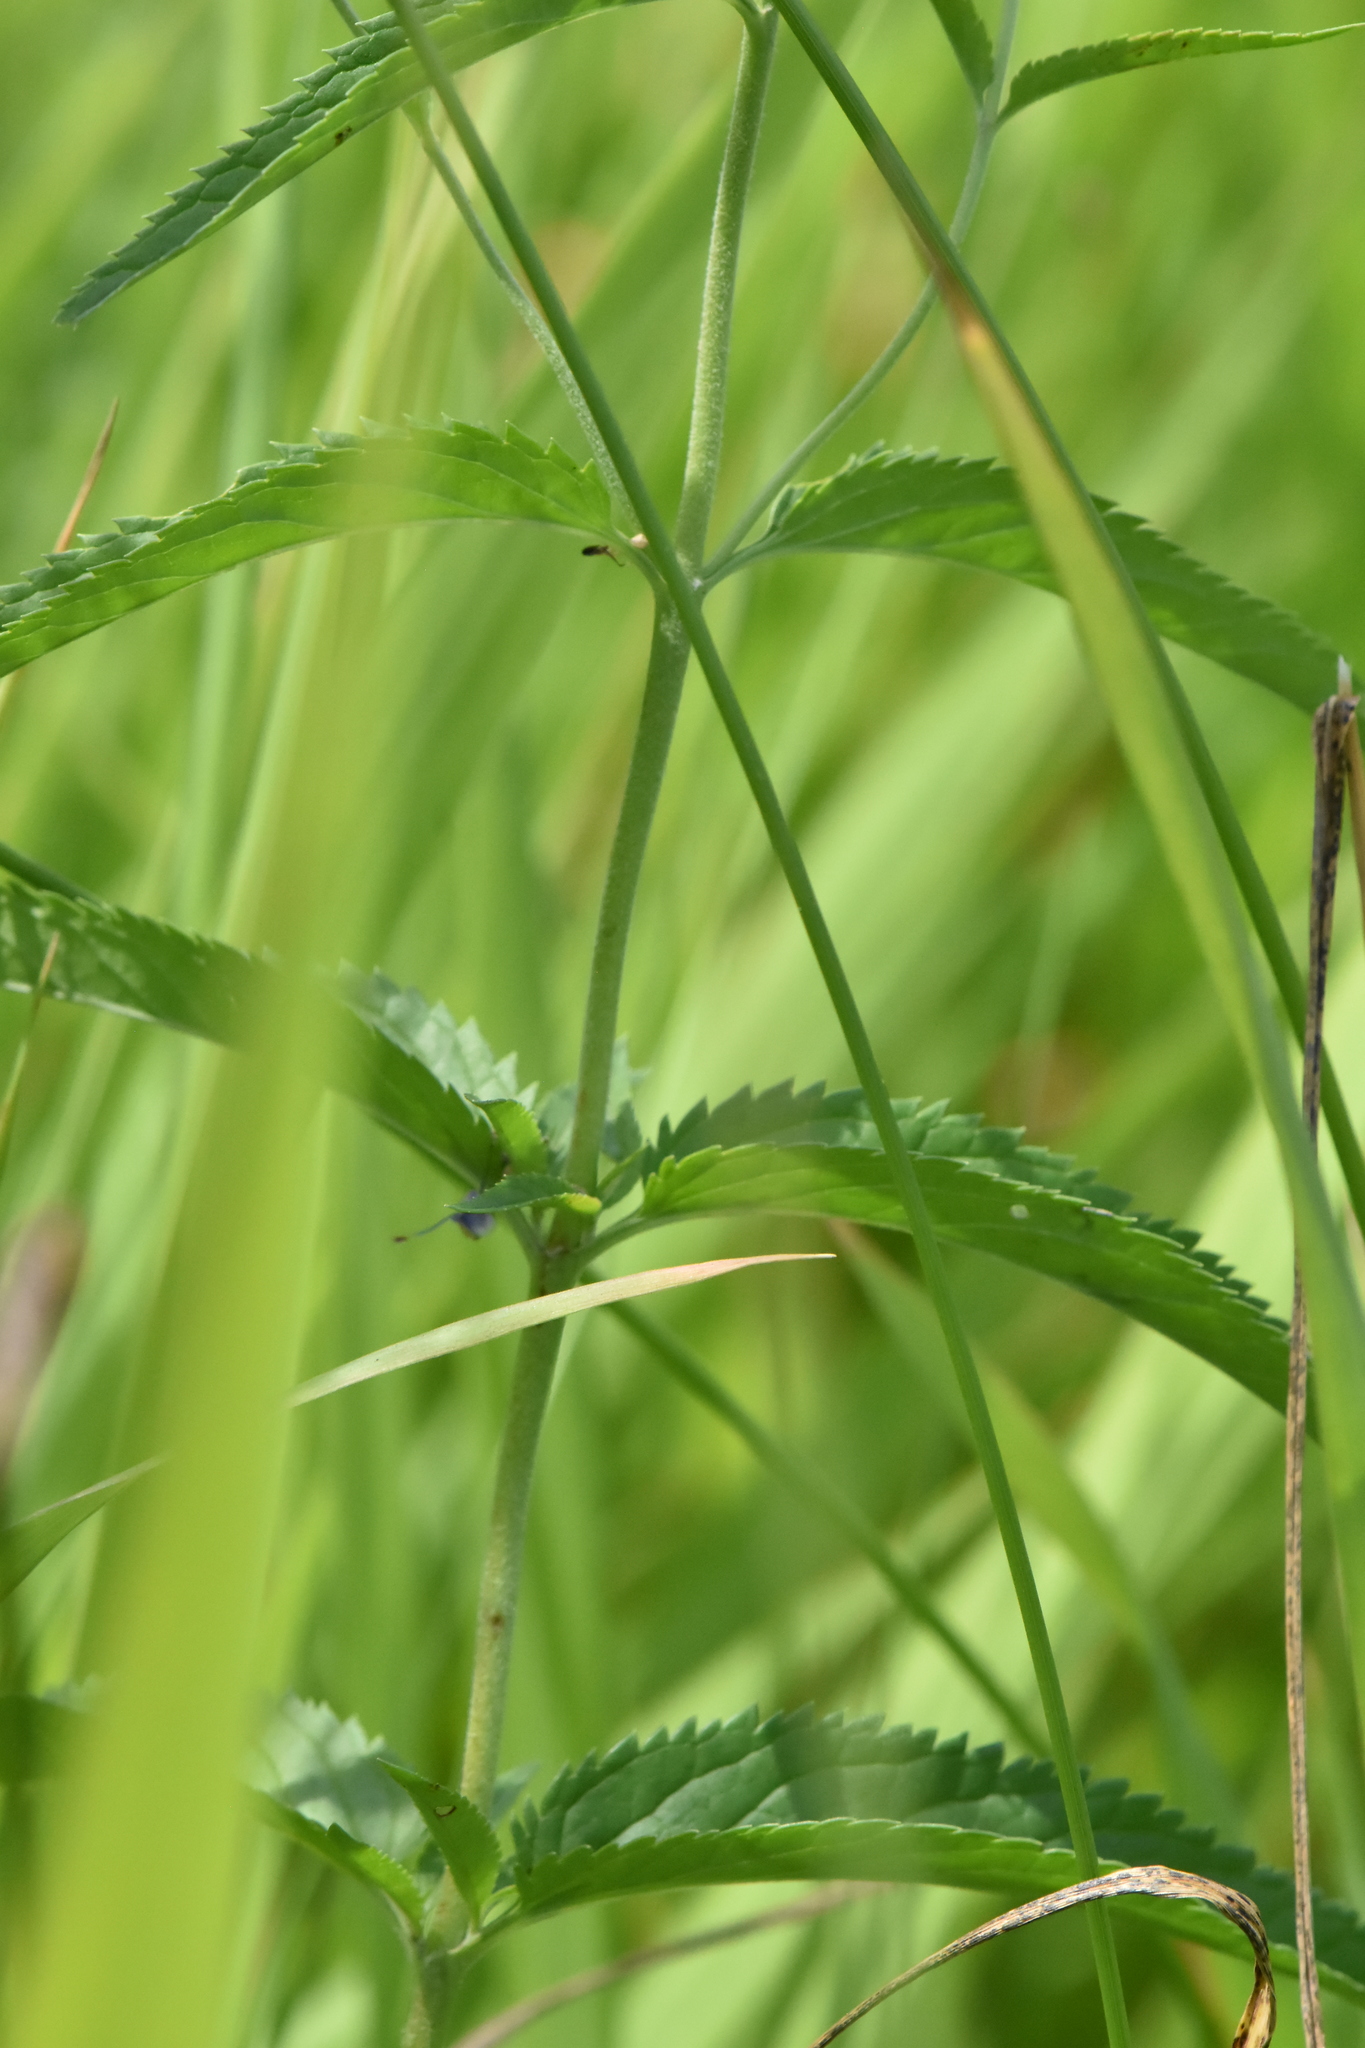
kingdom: Plantae
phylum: Tracheophyta
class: Magnoliopsida
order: Lamiales
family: Plantaginaceae
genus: Veronica
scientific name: Veronica longifolia
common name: Garden speedwell
